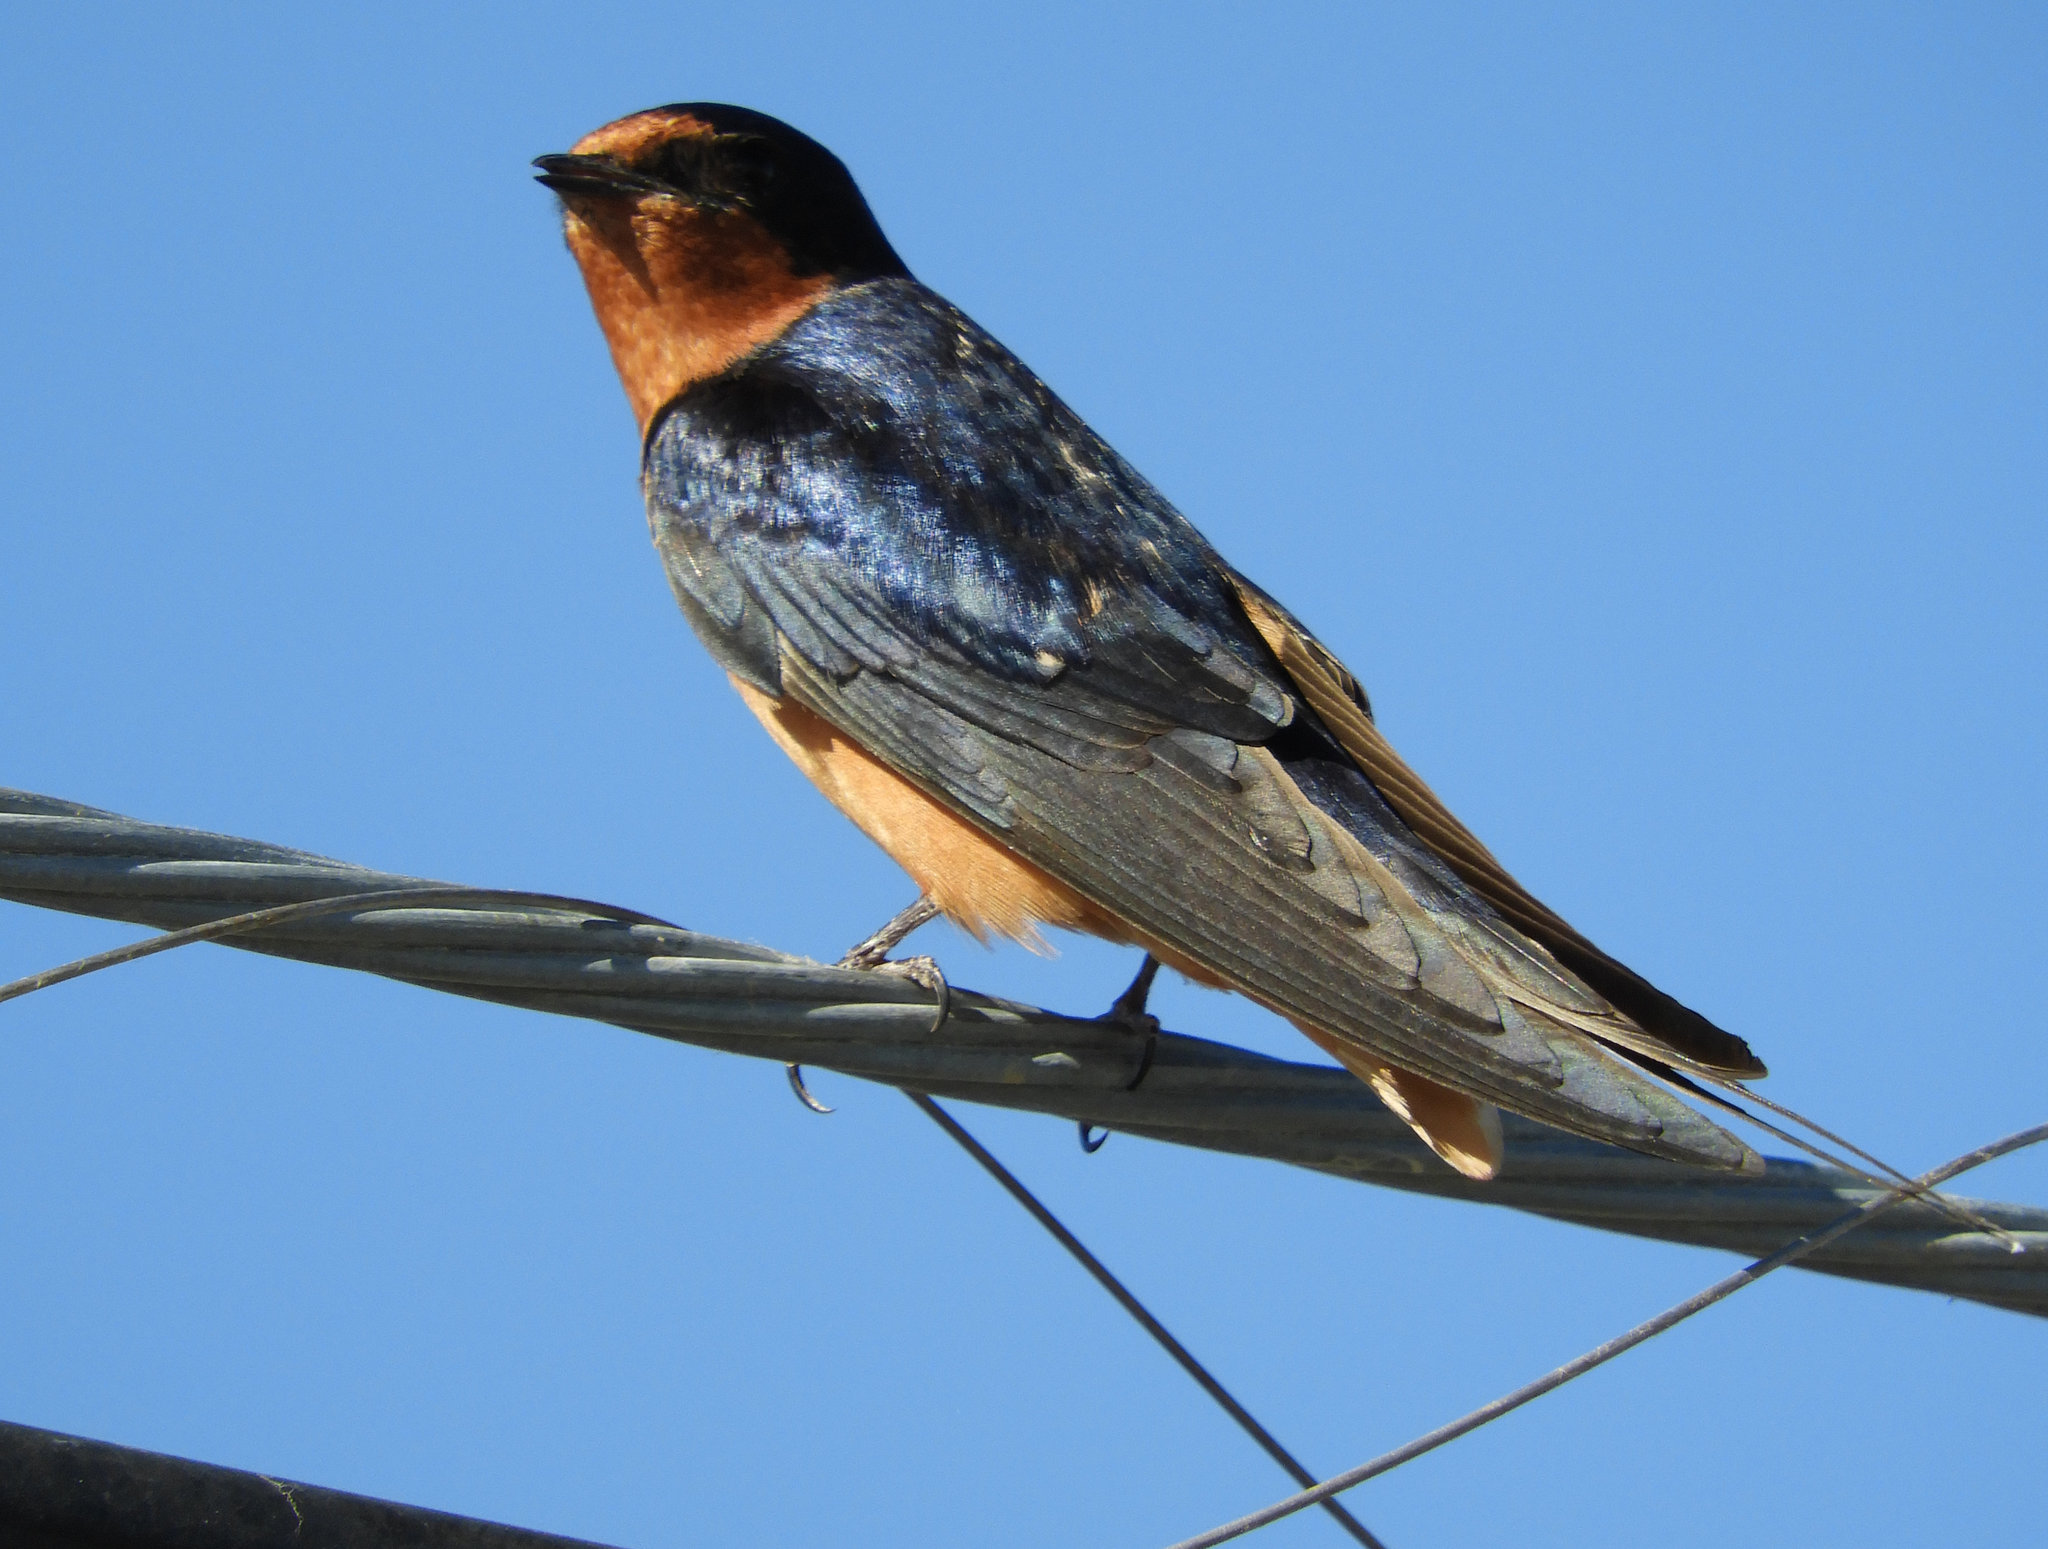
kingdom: Animalia
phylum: Chordata
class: Aves
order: Passeriformes
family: Hirundinidae
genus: Hirundo
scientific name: Hirundo rustica
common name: Barn swallow
